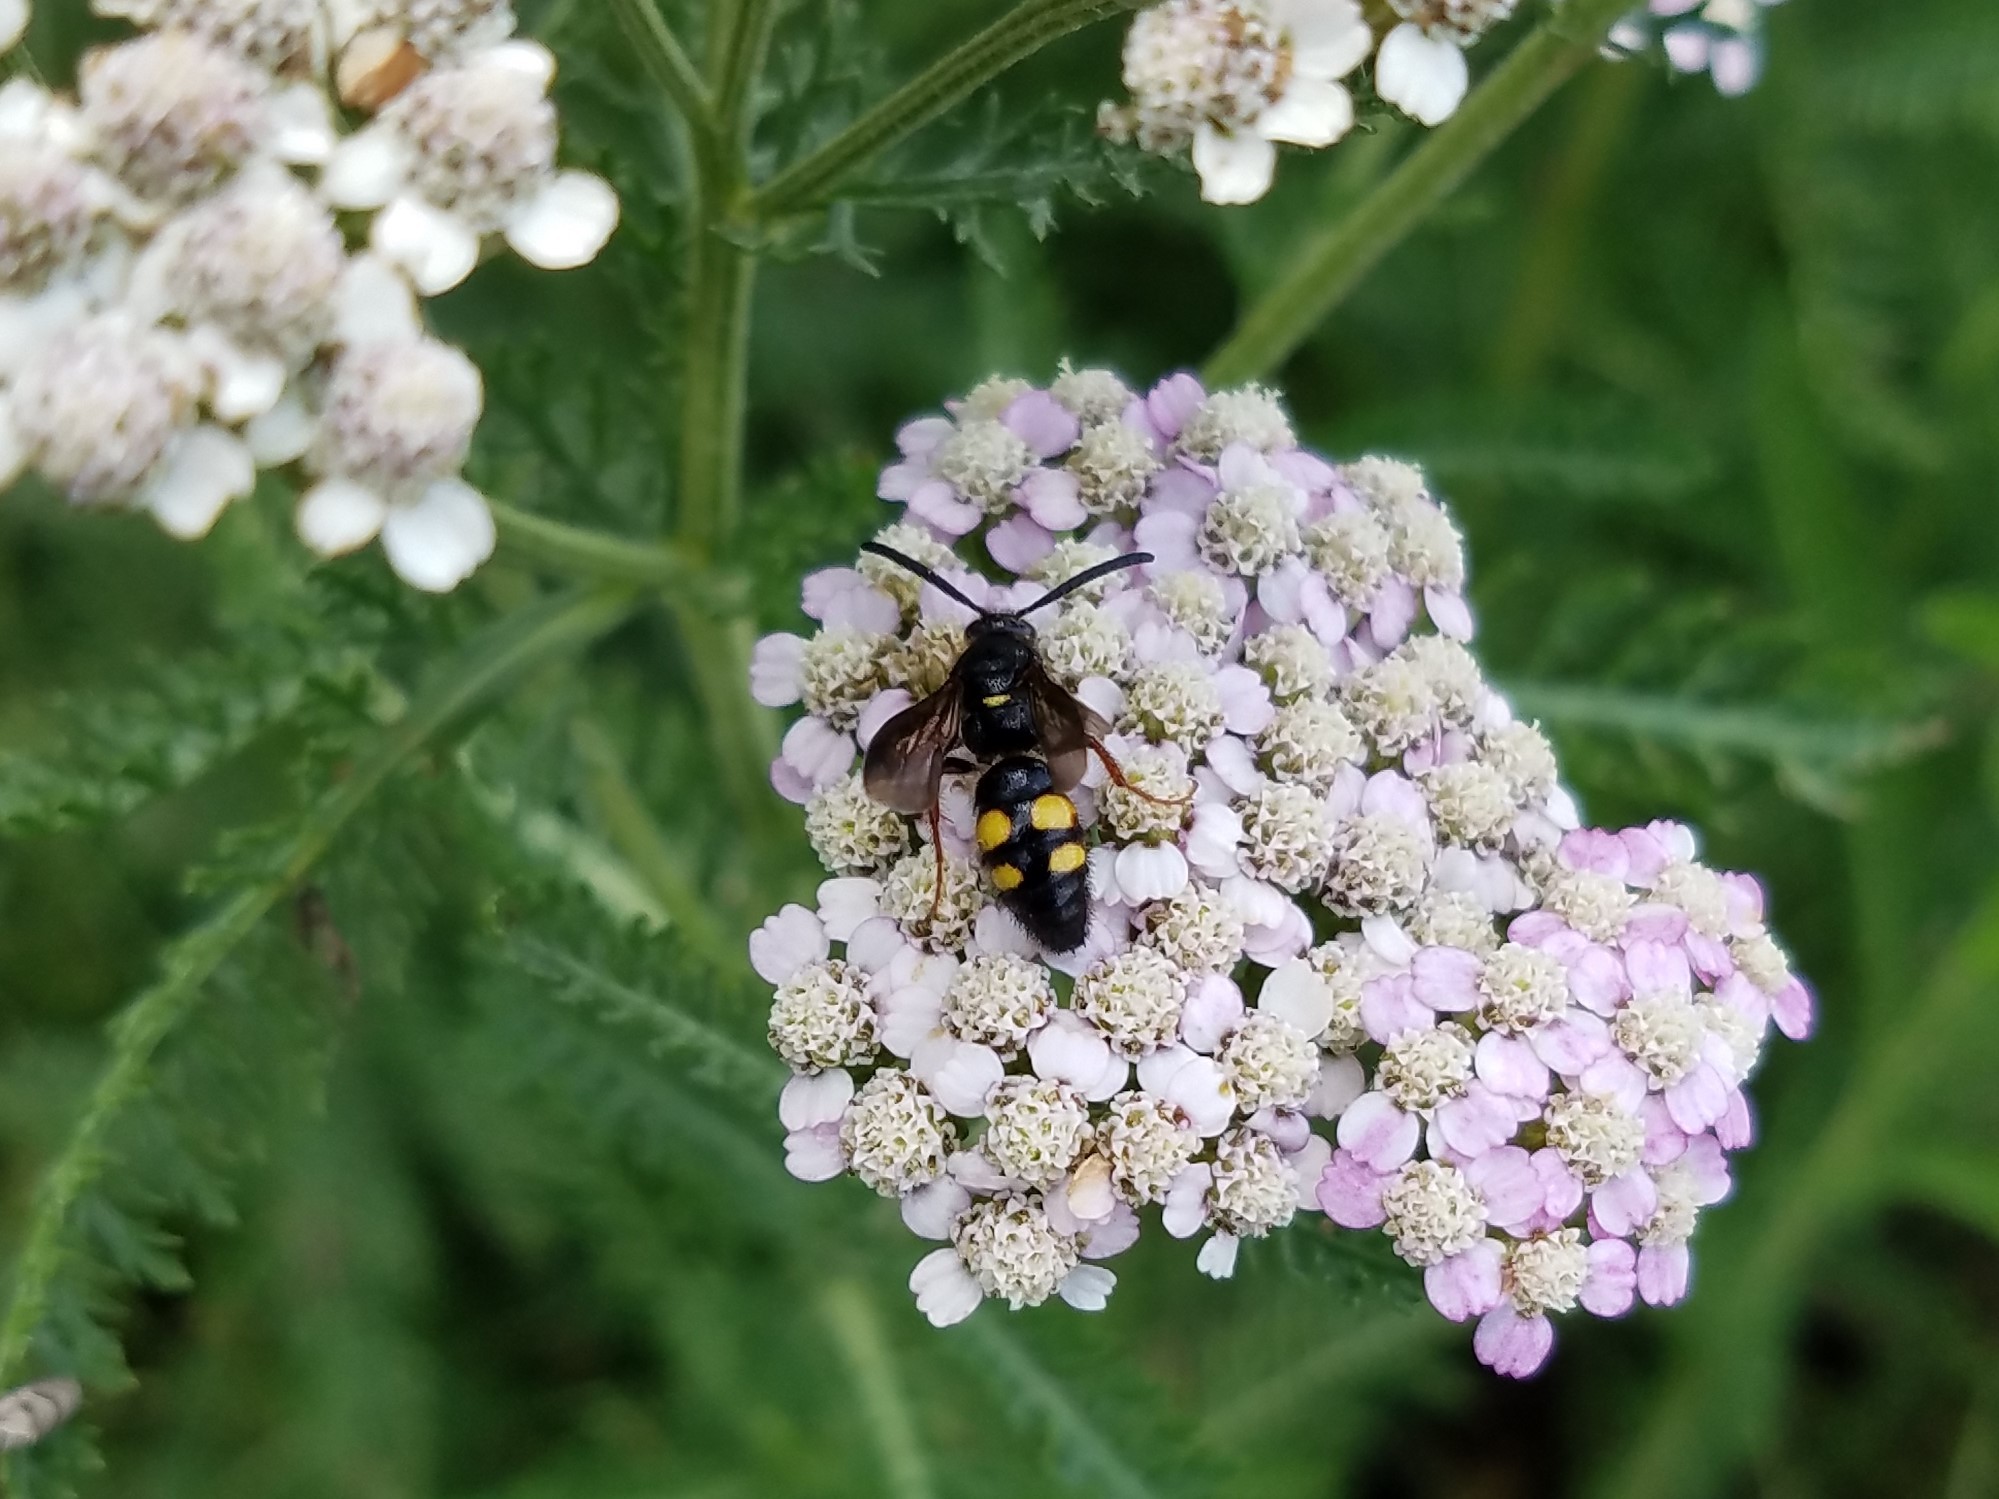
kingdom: Animalia
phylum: Arthropoda
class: Insecta
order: Hymenoptera
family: Scoliidae
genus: Scolia
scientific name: Scolia nobilitata
